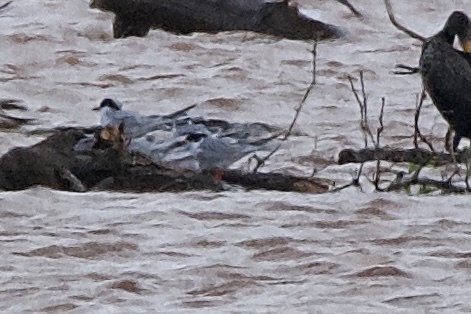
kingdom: Animalia
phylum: Chordata
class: Aves
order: Charadriiformes
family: Laridae
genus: Sterna
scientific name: Sterna paradisaea
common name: Arctic tern
